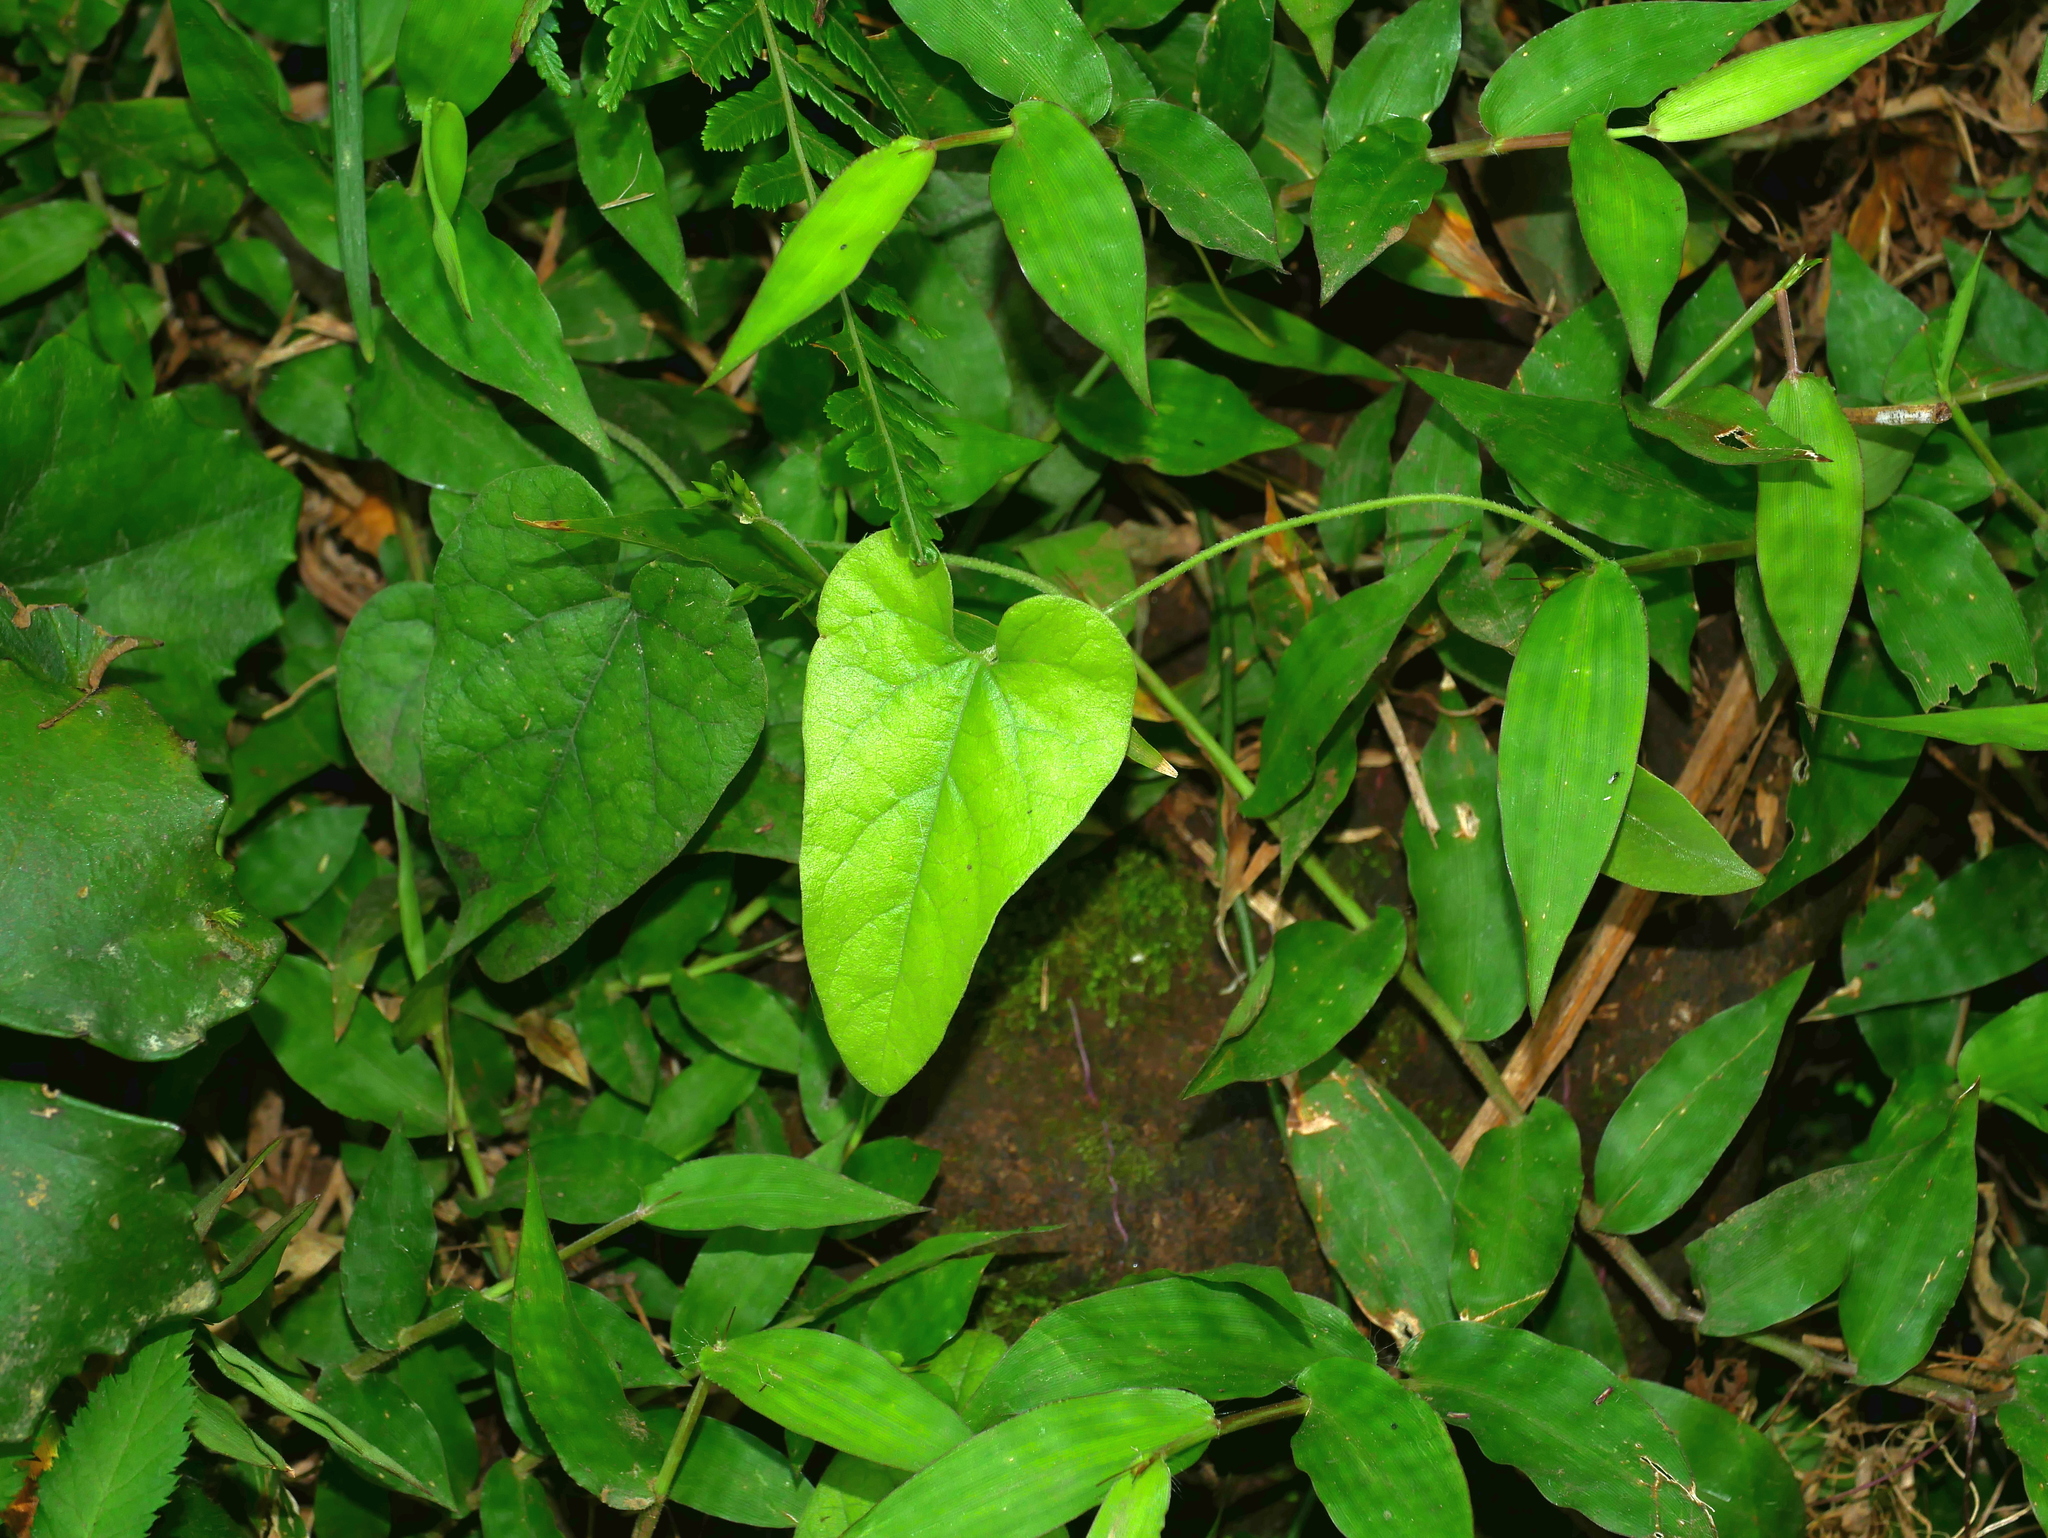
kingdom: Plantae
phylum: Tracheophyta
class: Magnoliopsida
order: Piperales
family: Aristolochiaceae
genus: Isotrema
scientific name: Isotrema shimadae
